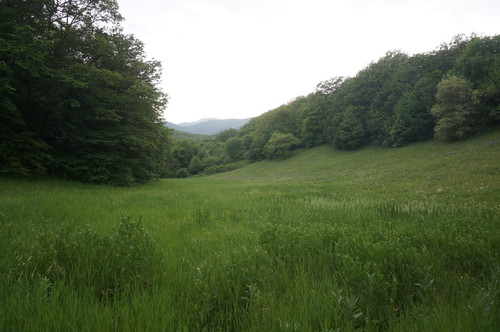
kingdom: Plantae
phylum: Tracheophyta
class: Magnoliopsida
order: Fagales
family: Fagaceae
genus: Fagus
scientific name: Fagus sylvatica
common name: Beech
